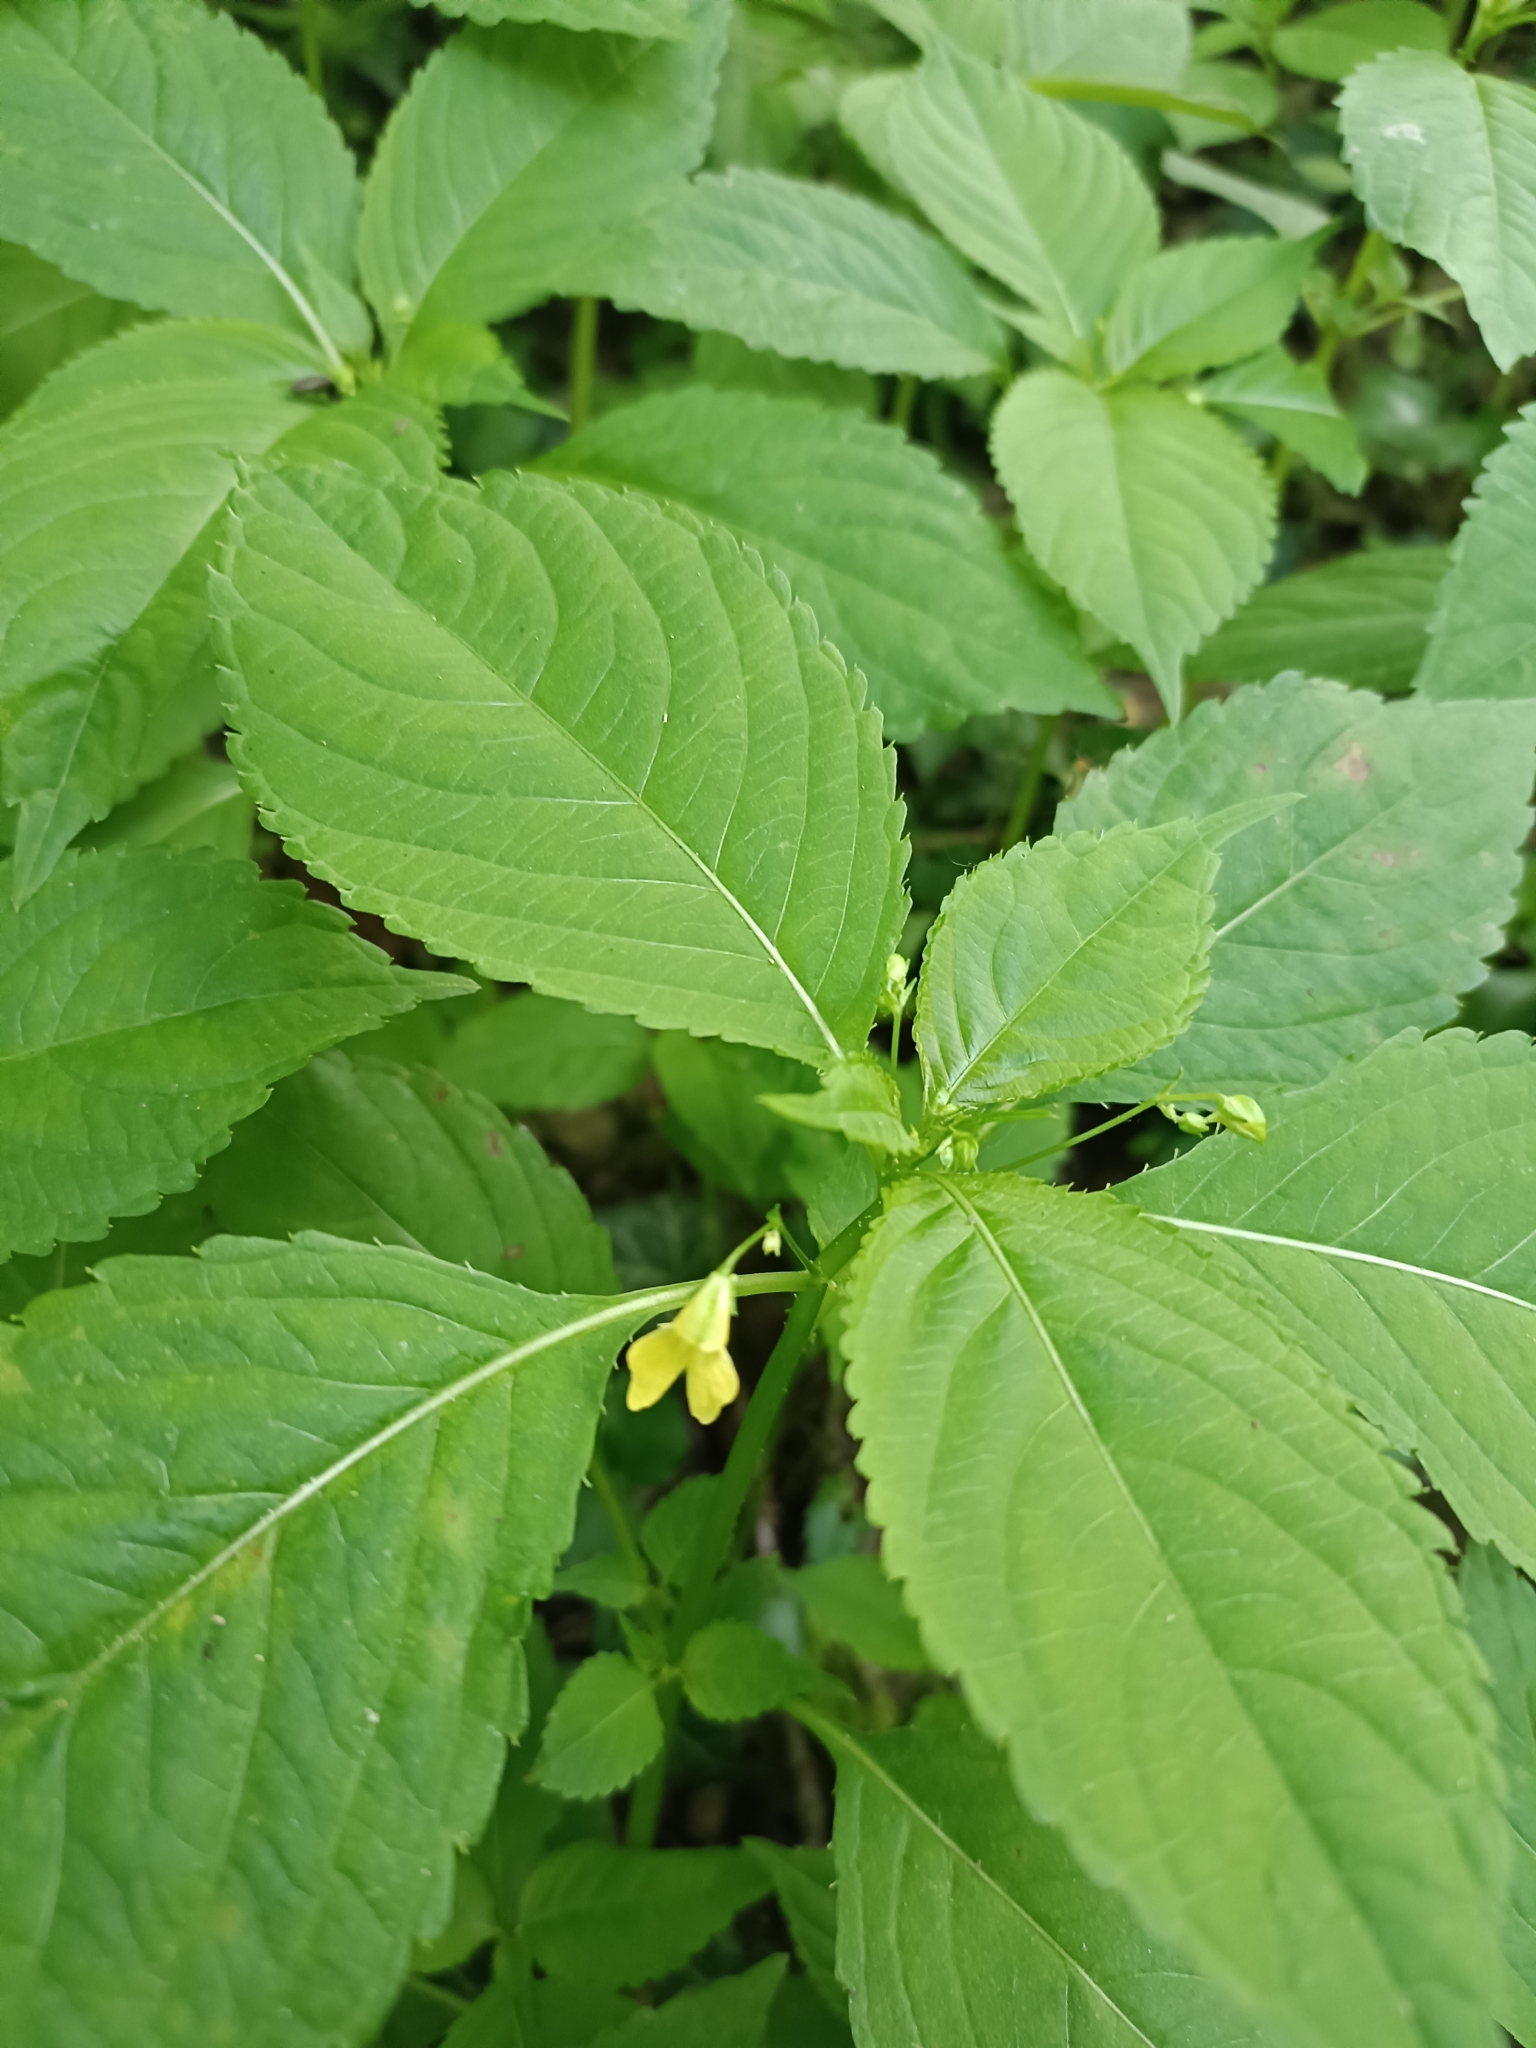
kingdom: Plantae
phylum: Tracheophyta
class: Magnoliopsida
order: Ericales
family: Balsaminaceae
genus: Impatiens
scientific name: Impatiens parviflora
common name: Small balsam
